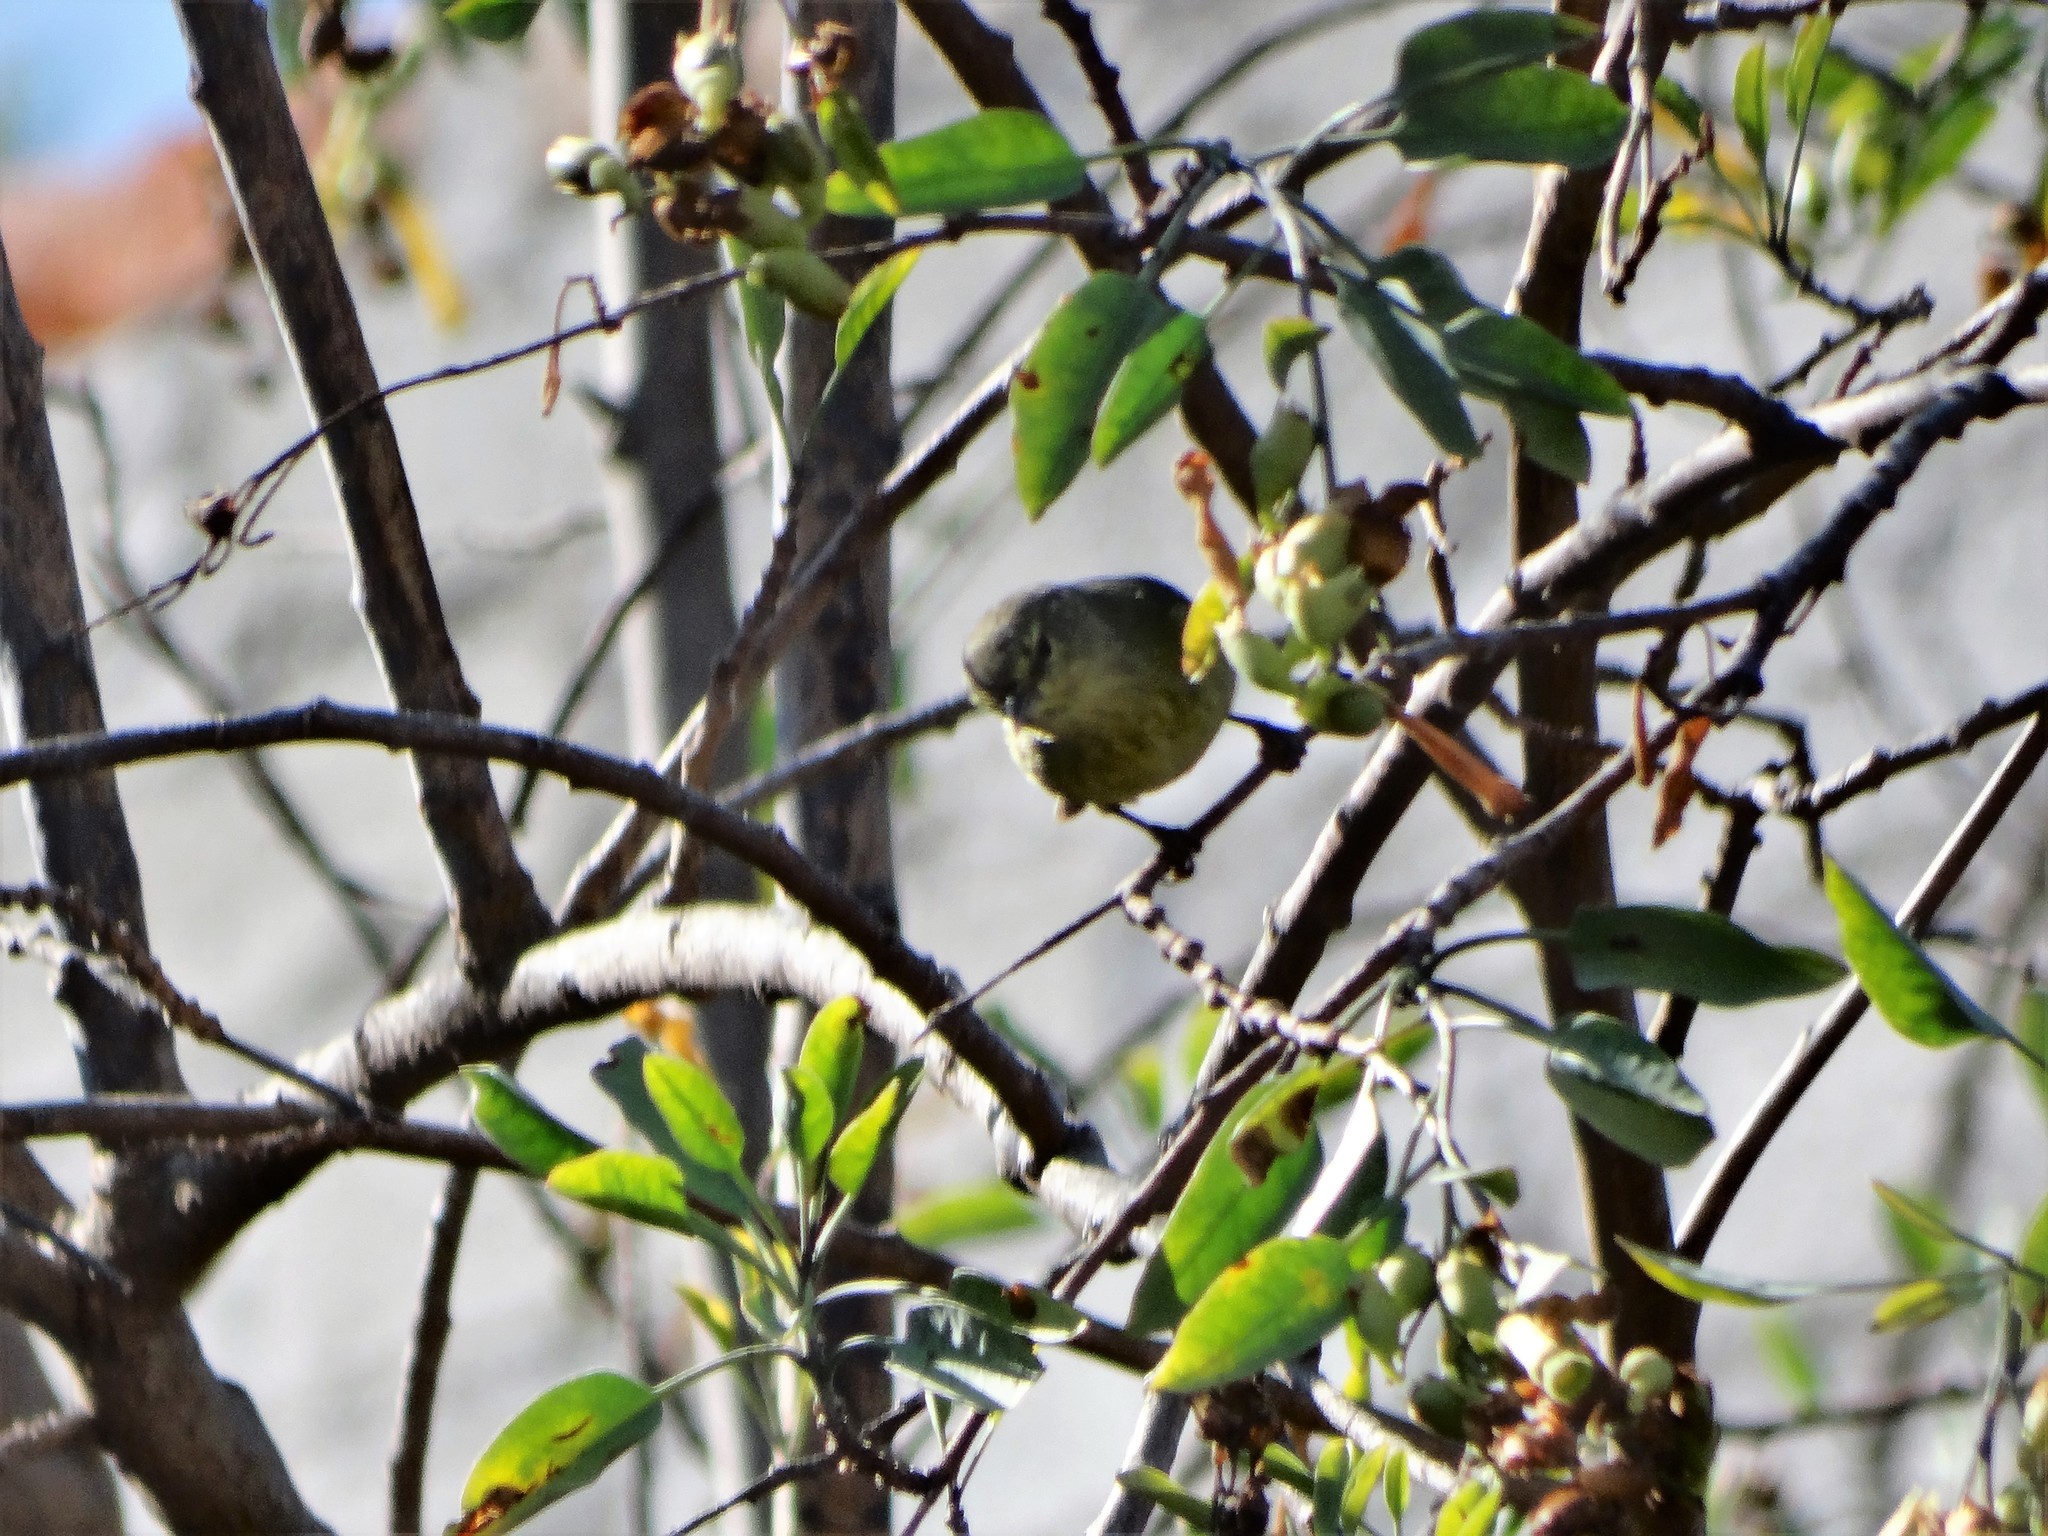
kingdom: Animalia
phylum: Chordata
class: Aves
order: Passeriformes
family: Parulidae
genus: Leiothlypis
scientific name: Leiothlypis celata
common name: Orange-crowned warbler
